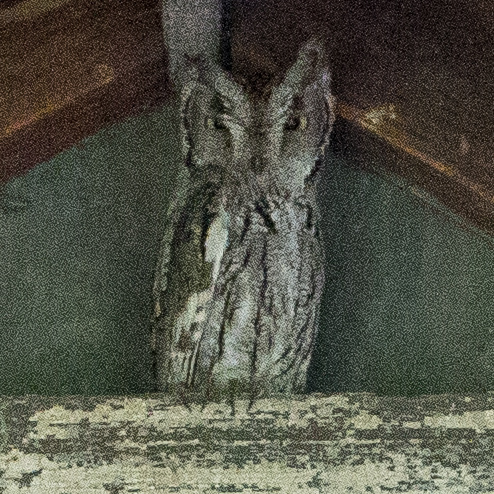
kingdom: Animalia
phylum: Chordata
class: Aves
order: Strigiformes
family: Strigidae
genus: Megascops
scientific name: Megascops kennicottii
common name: Western screech-owl
